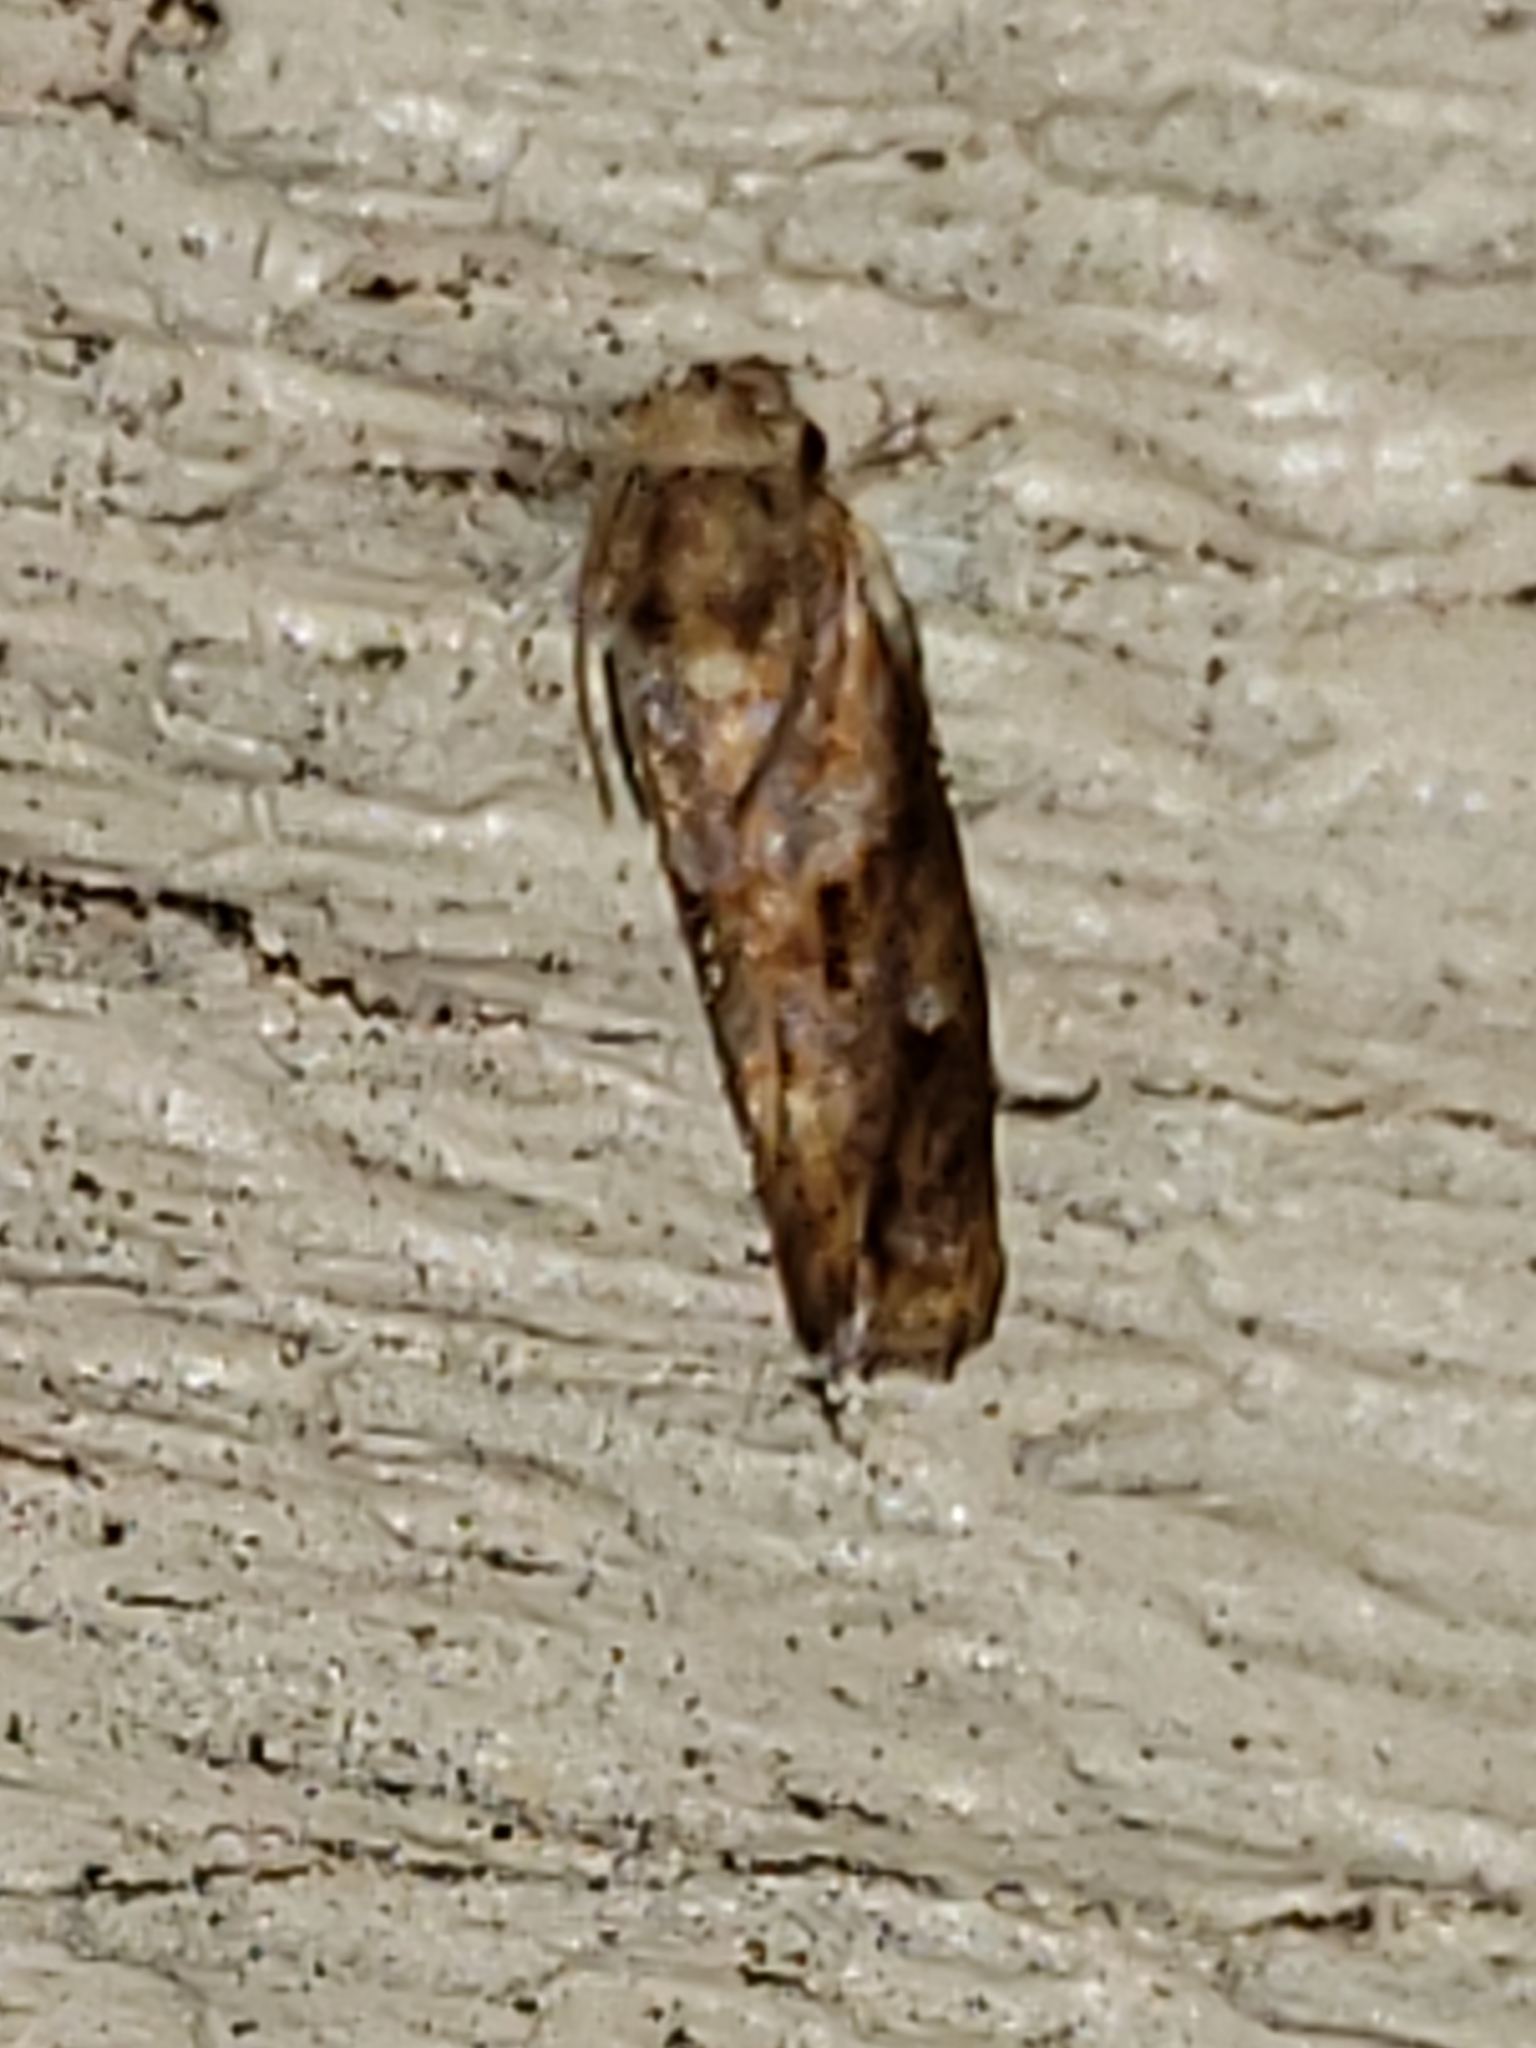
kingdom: Animalia
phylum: Arthropoda
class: Insecta
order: Lepidoptera
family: Tineidae
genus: Acrolophus
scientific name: Acrolophus panamae
